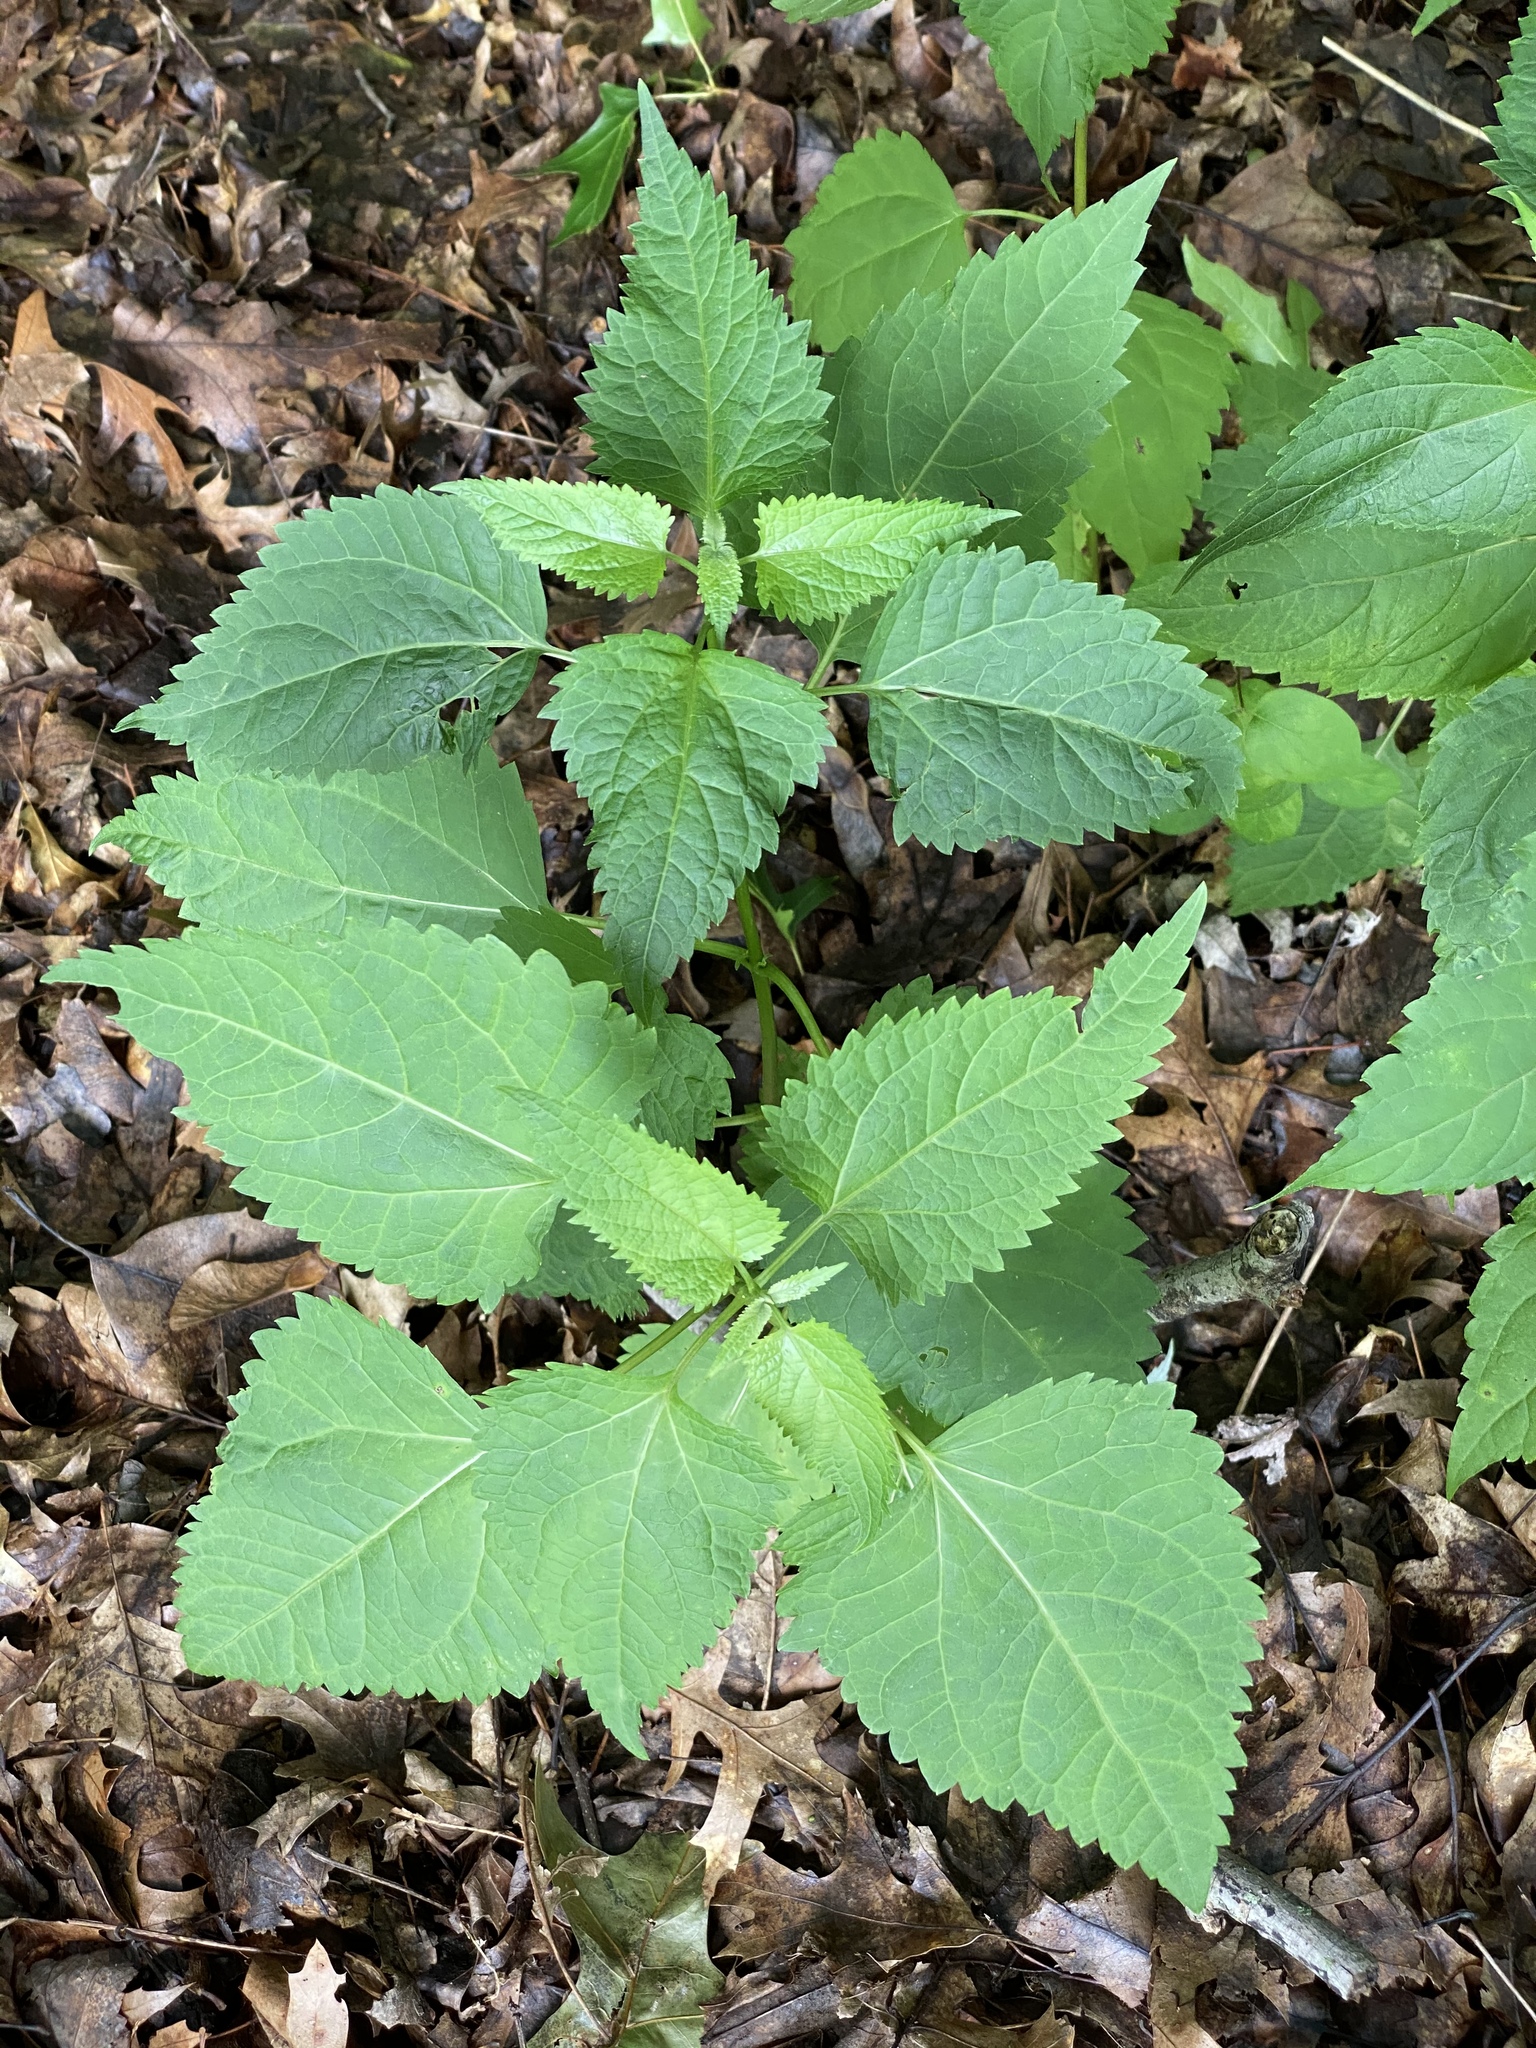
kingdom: Plantae
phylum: Tracheophyta
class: Magnoliopsida
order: Asterales
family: Asteraceae
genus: Ageratina
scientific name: Ageratina altissima
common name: White snakeroot
